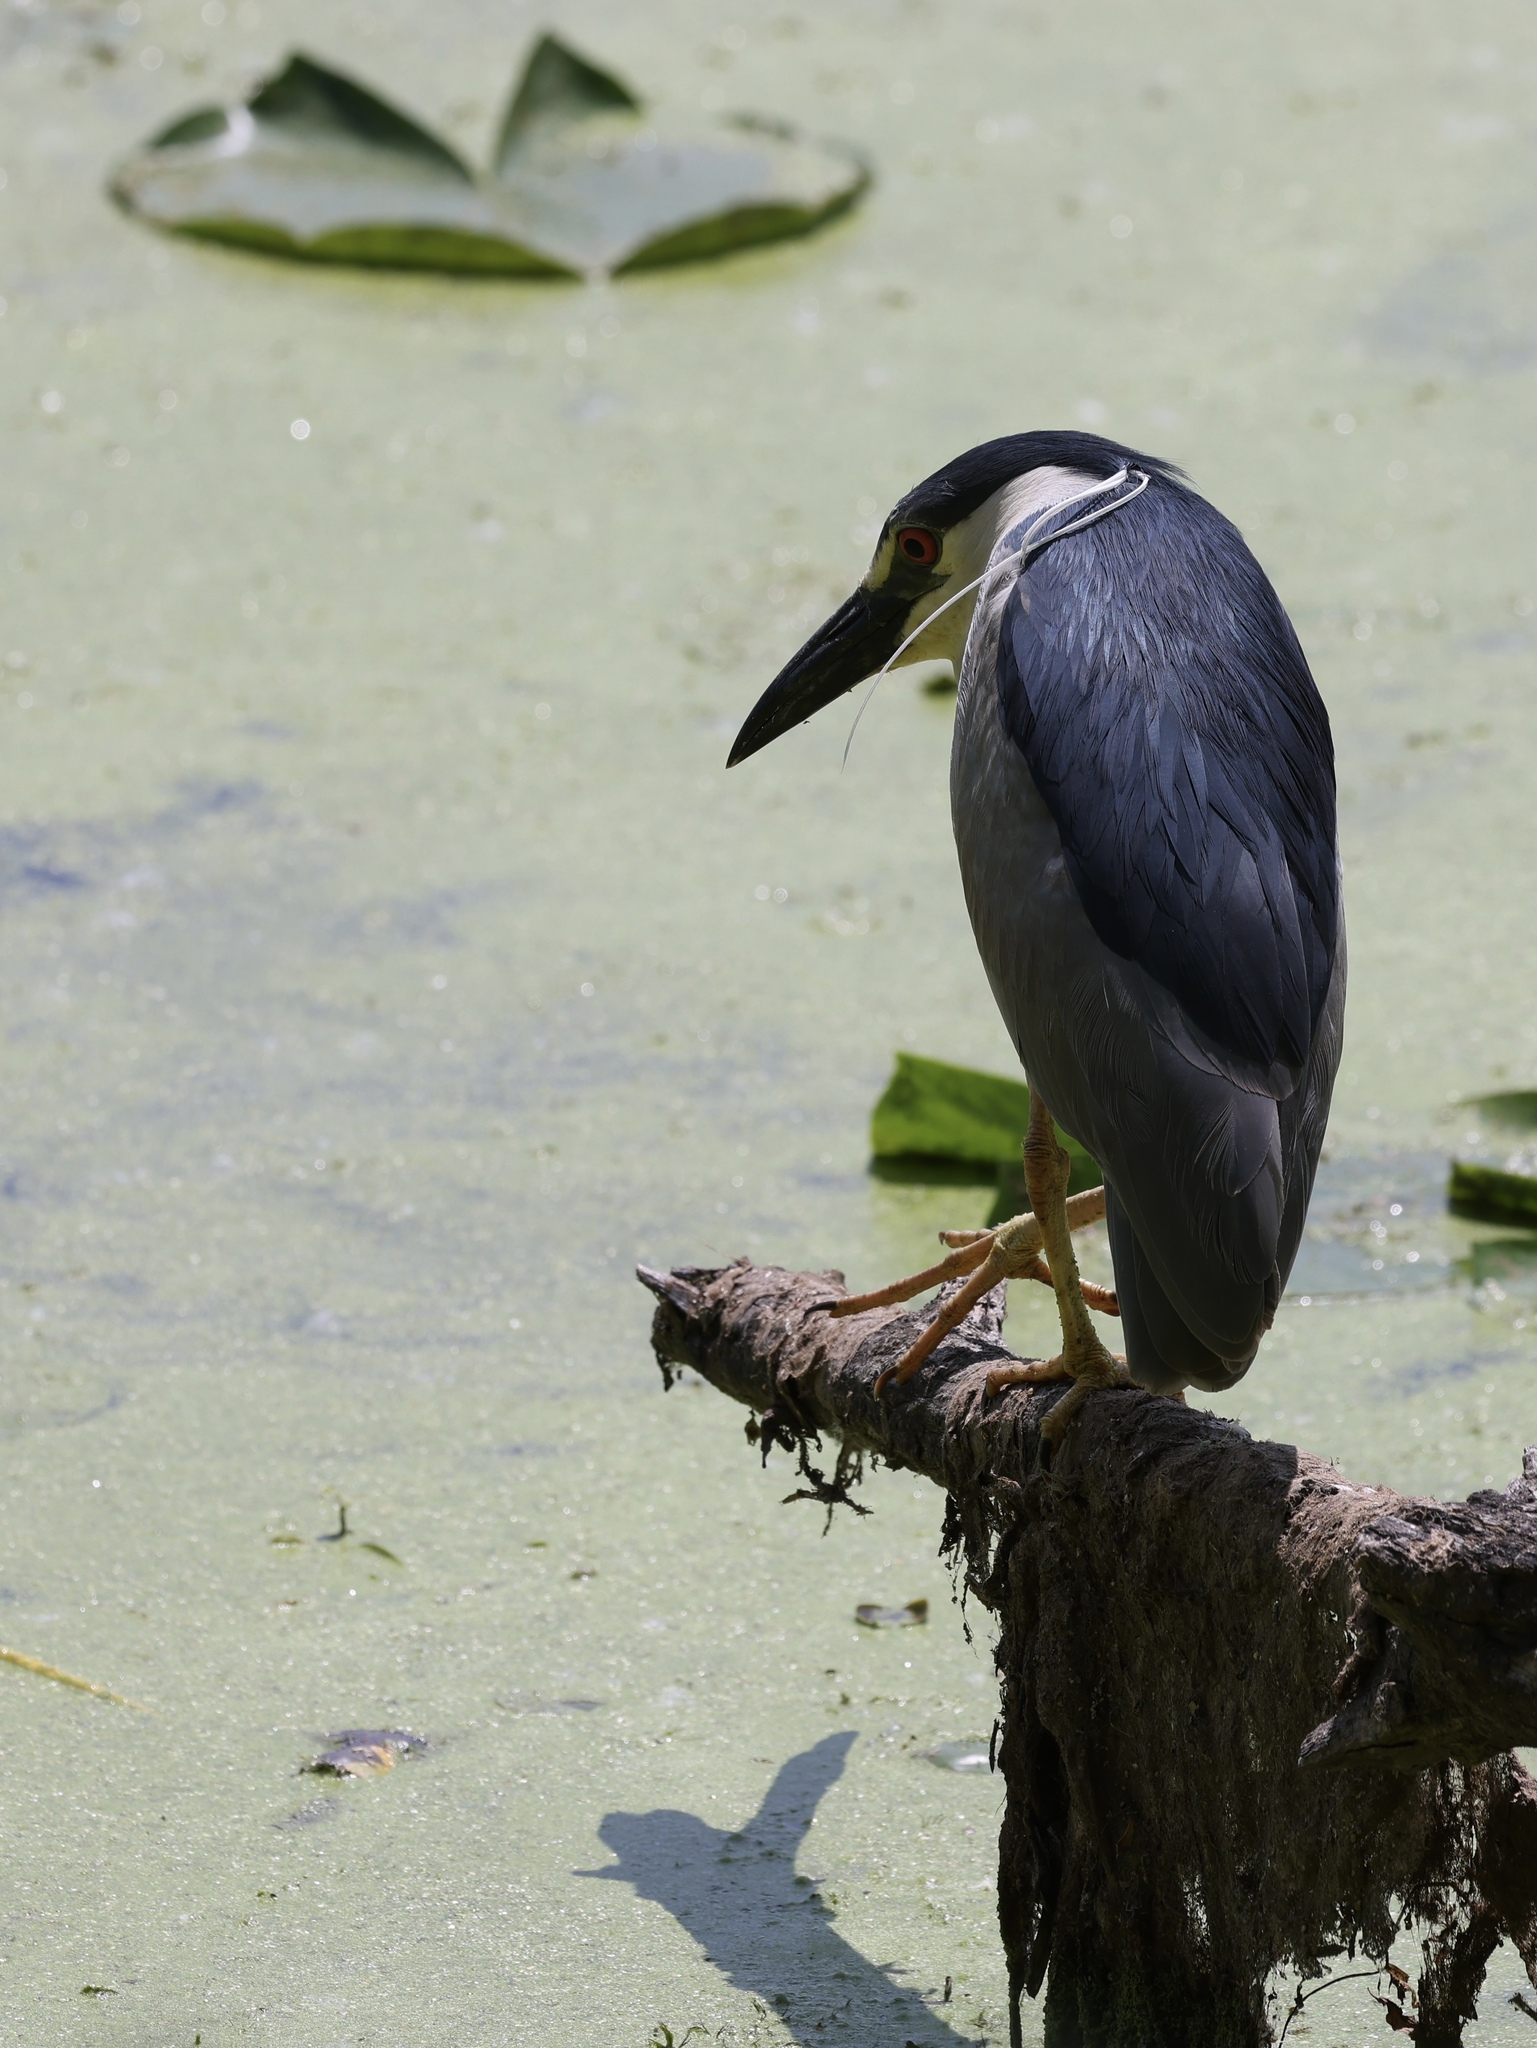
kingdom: Animalia
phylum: Chordata
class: Aves
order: Pelecaniformes
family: Ardeidae
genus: Nycticorax
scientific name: Nycticorax nycticorax
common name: Black-crowned night heron
